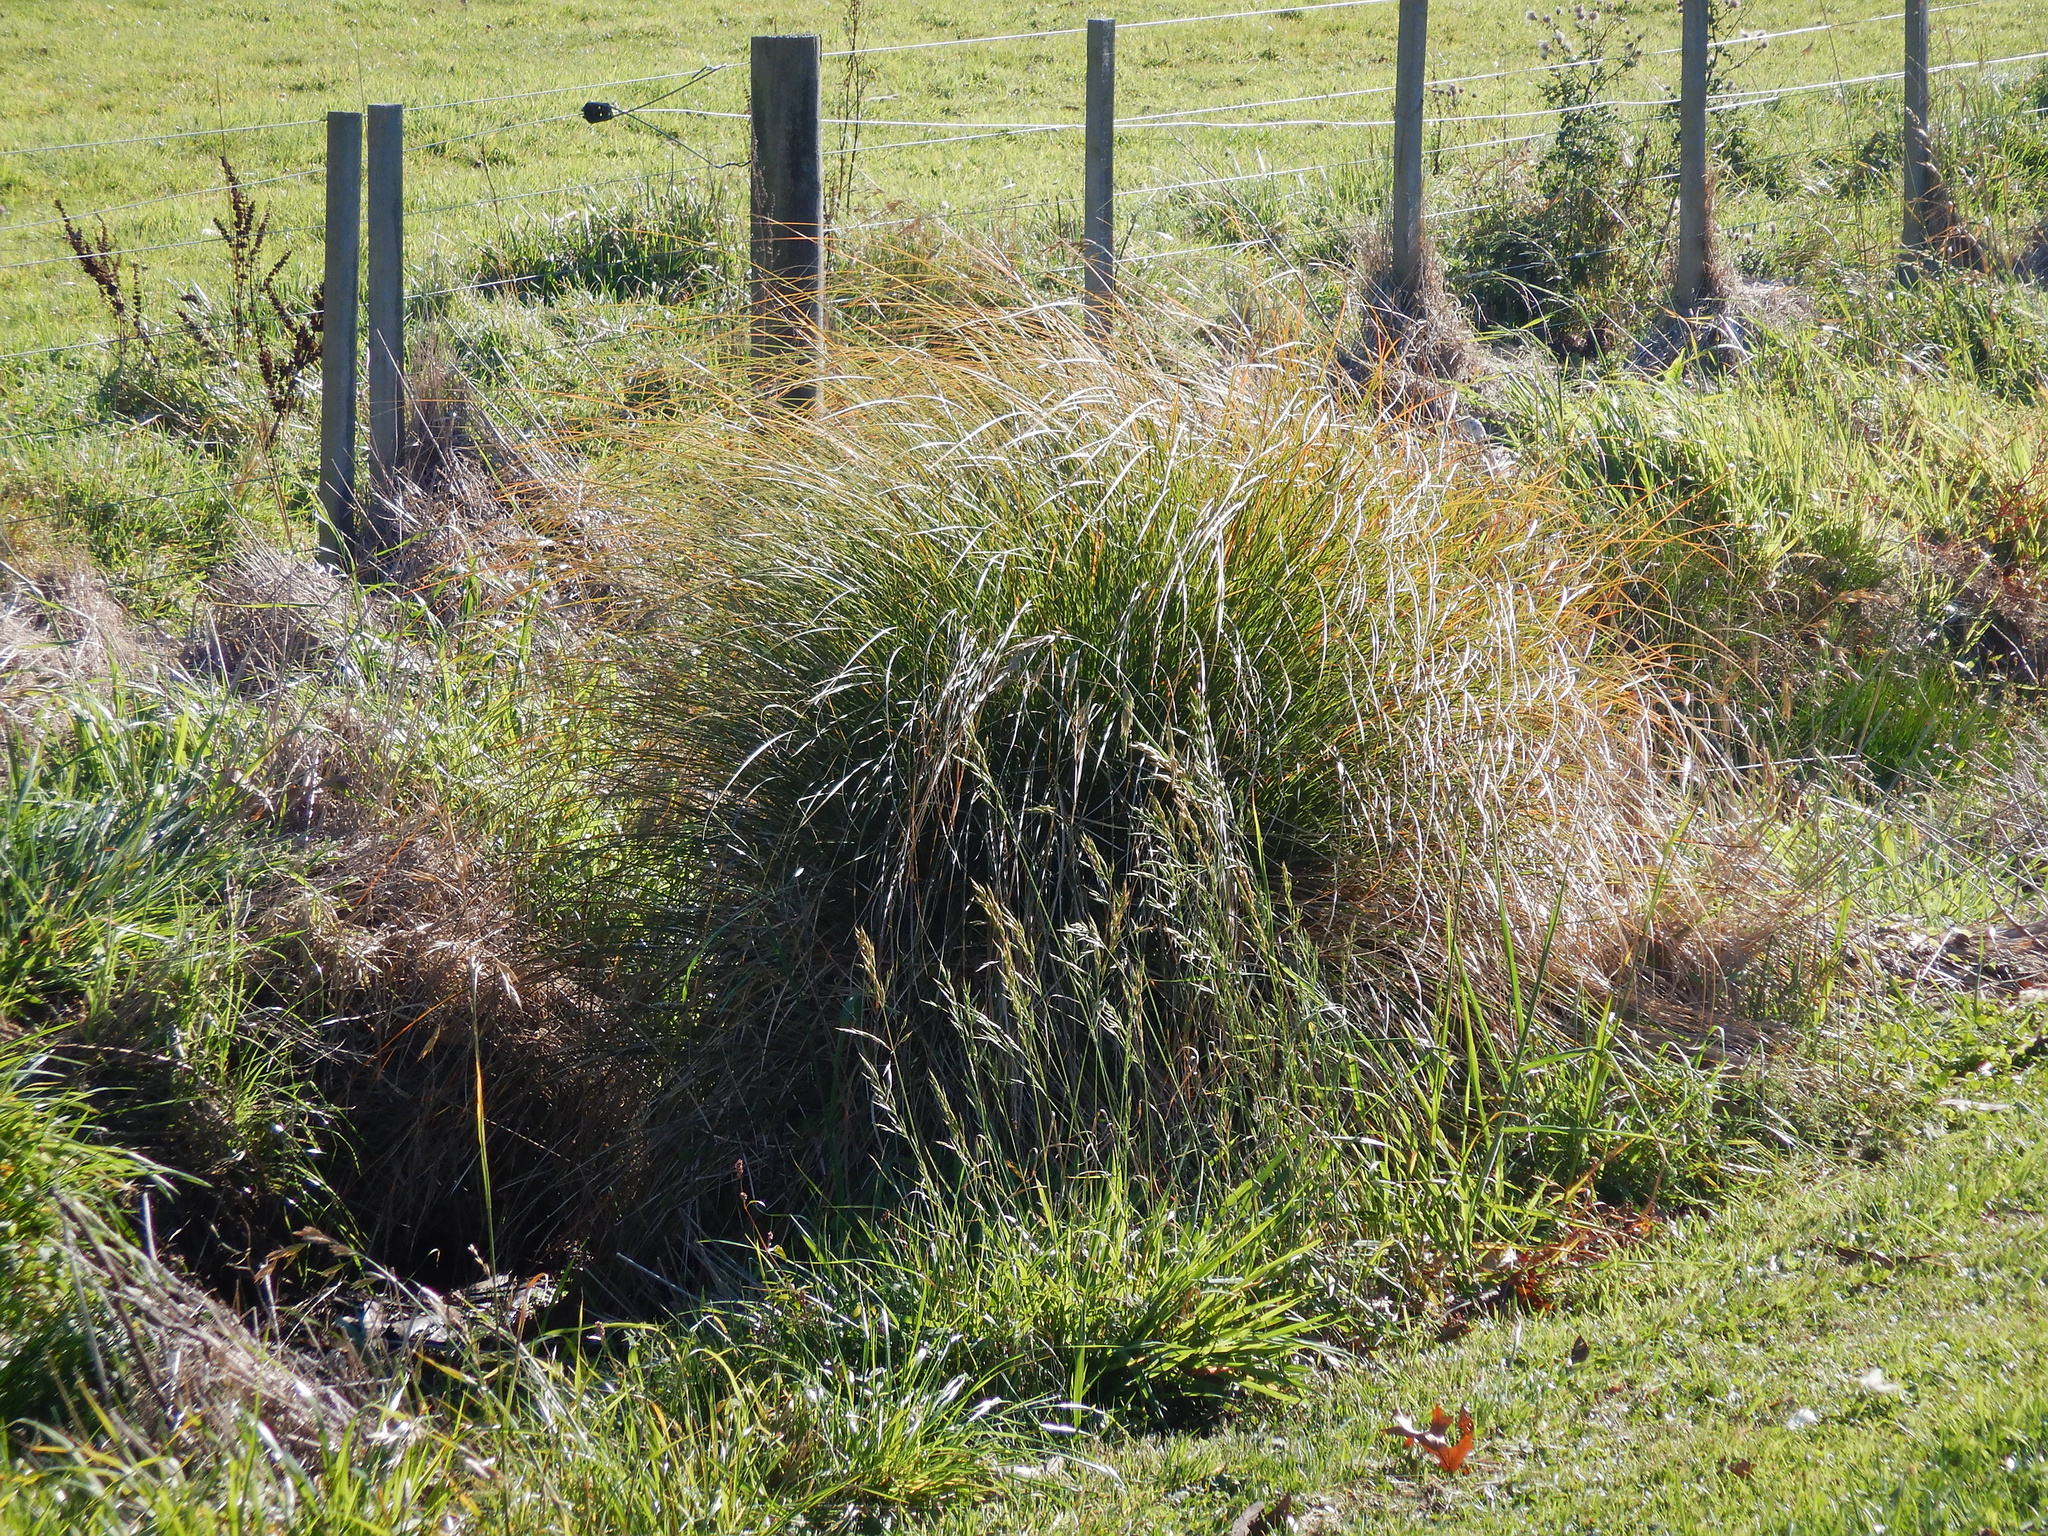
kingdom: Plantae
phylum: Tracheophyta
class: Liliopsida
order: Poales
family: Cyperaceae
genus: Carex
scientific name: Carex secta
